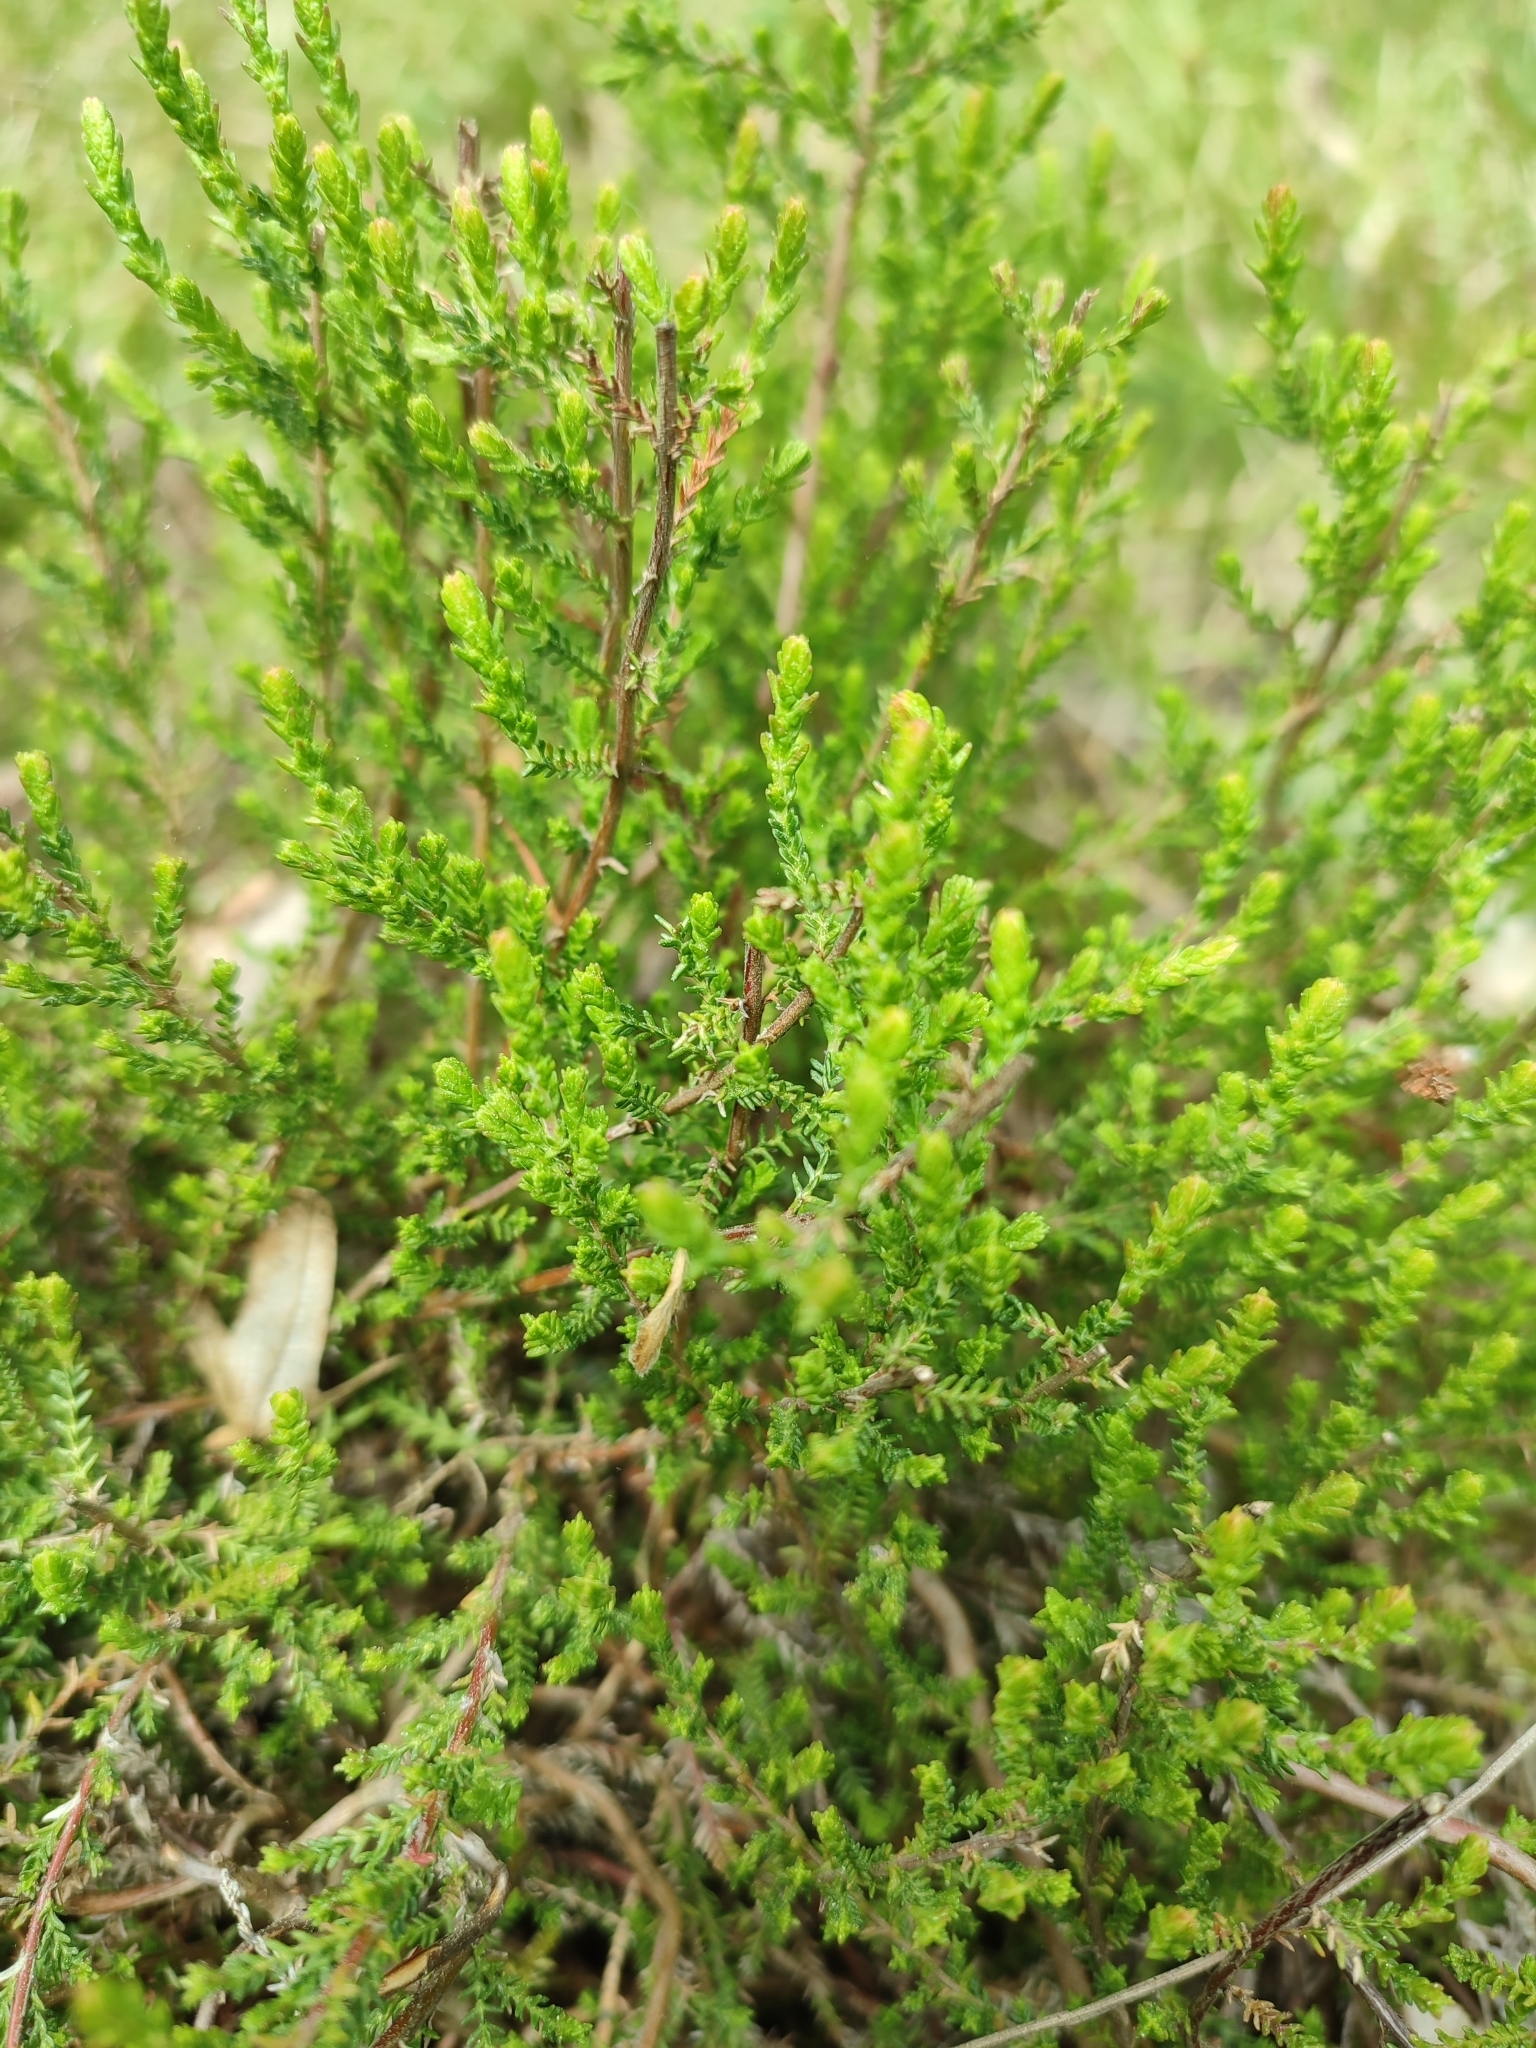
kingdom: Plantae
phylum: Tracheophyta
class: Magnoliopsida
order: Ericales
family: Ericaceae
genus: Calluna
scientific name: Calluna vulgaris
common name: Heather
